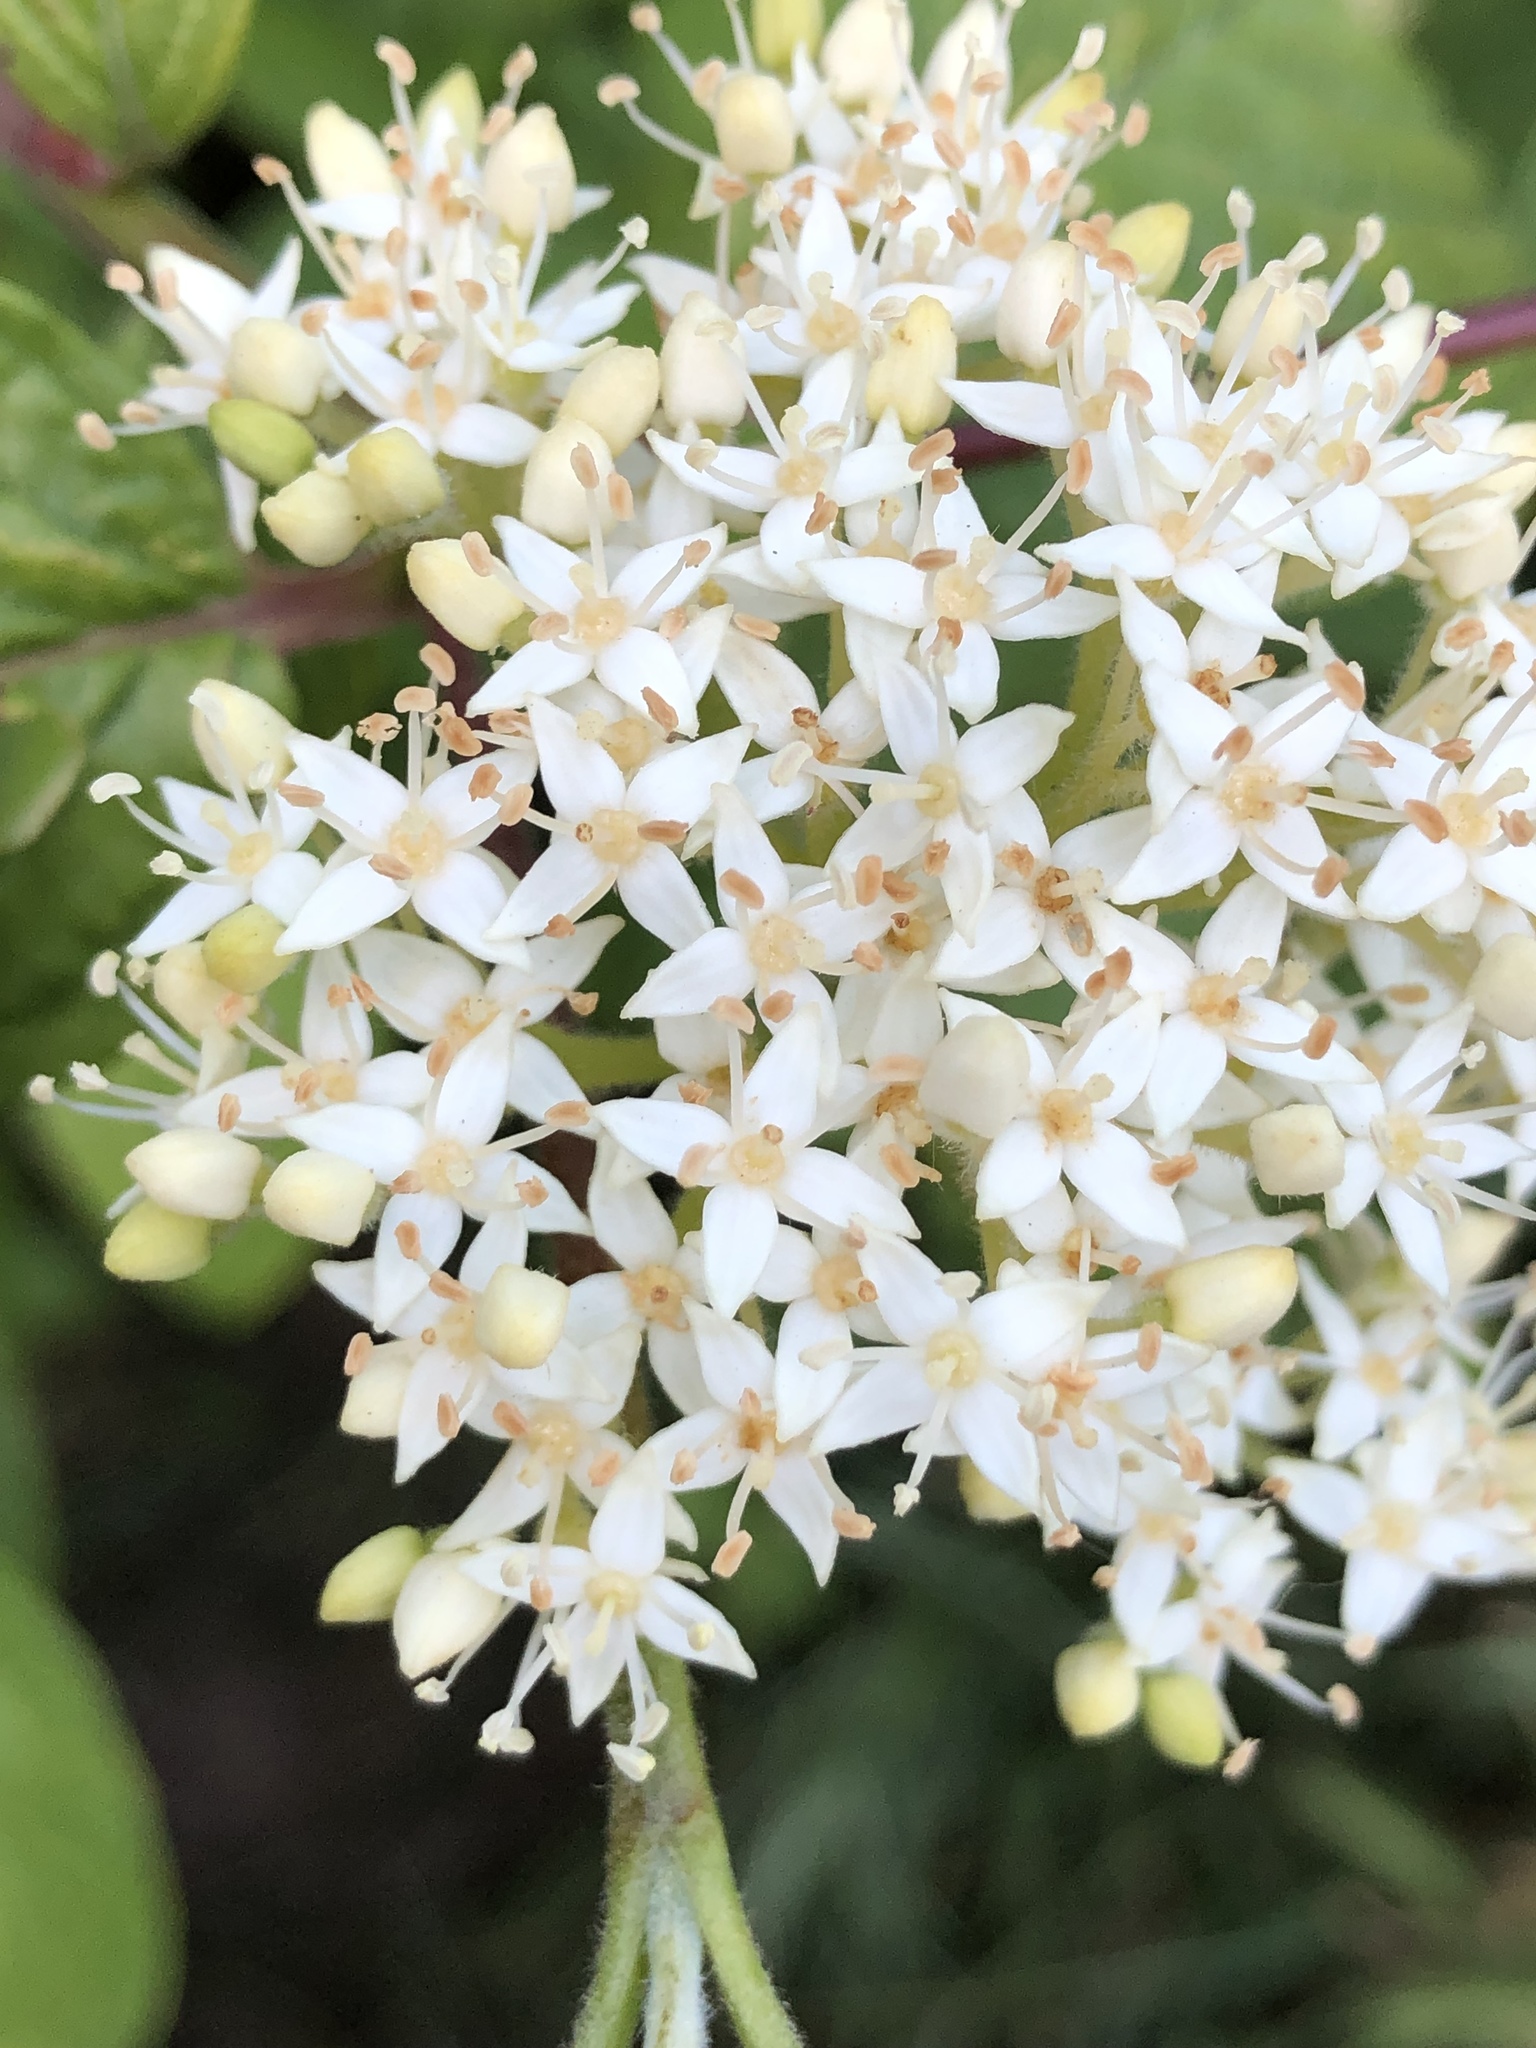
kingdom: Plantae
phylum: Tracheophyta
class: Magnoliopsida
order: Cornales
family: Cornaceae
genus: Cornus
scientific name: Cornus sericea
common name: Red-osier dogwood
